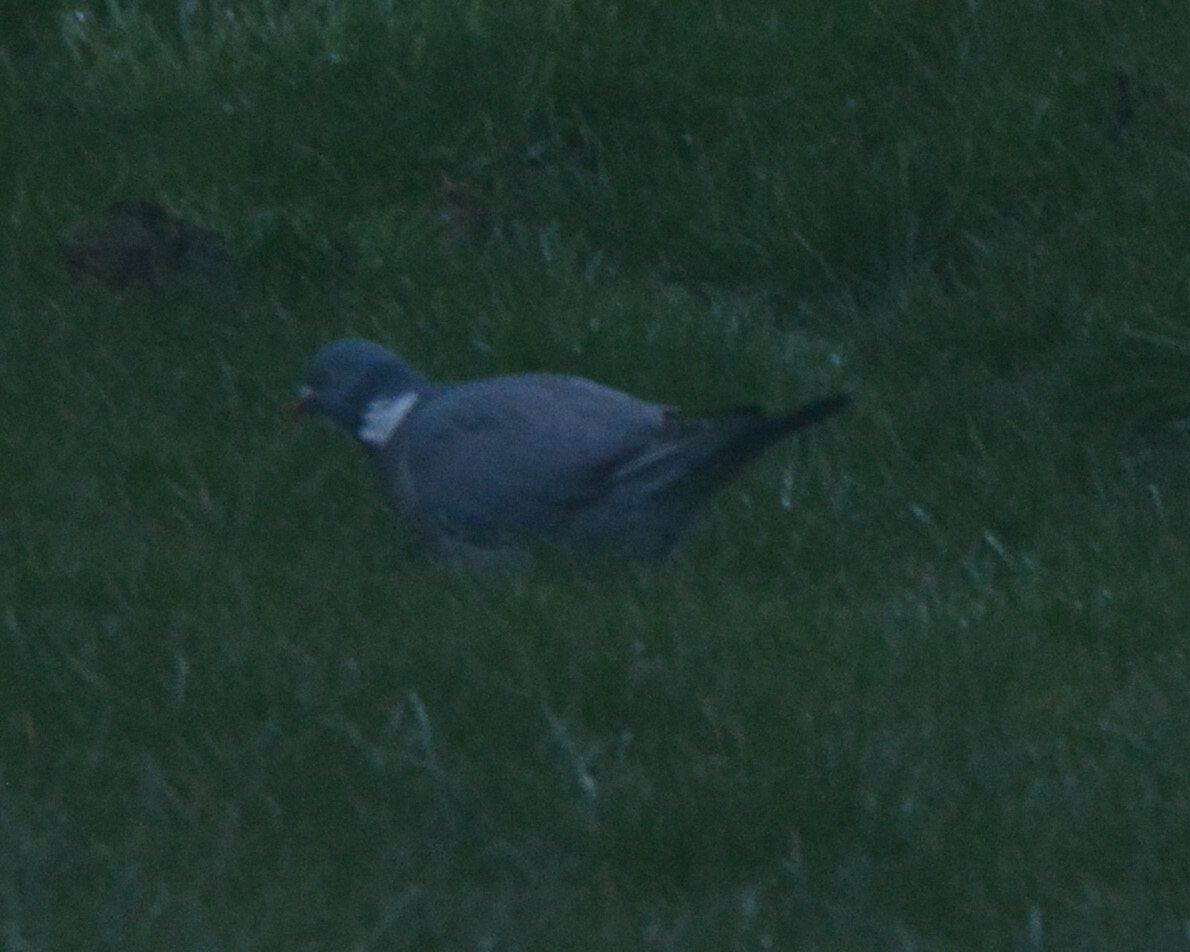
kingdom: Animalia
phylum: Chordata
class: Aves
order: Columbiformes
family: Columbidae
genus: Columba
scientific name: Columba palumbus
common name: Common wood pigeon
